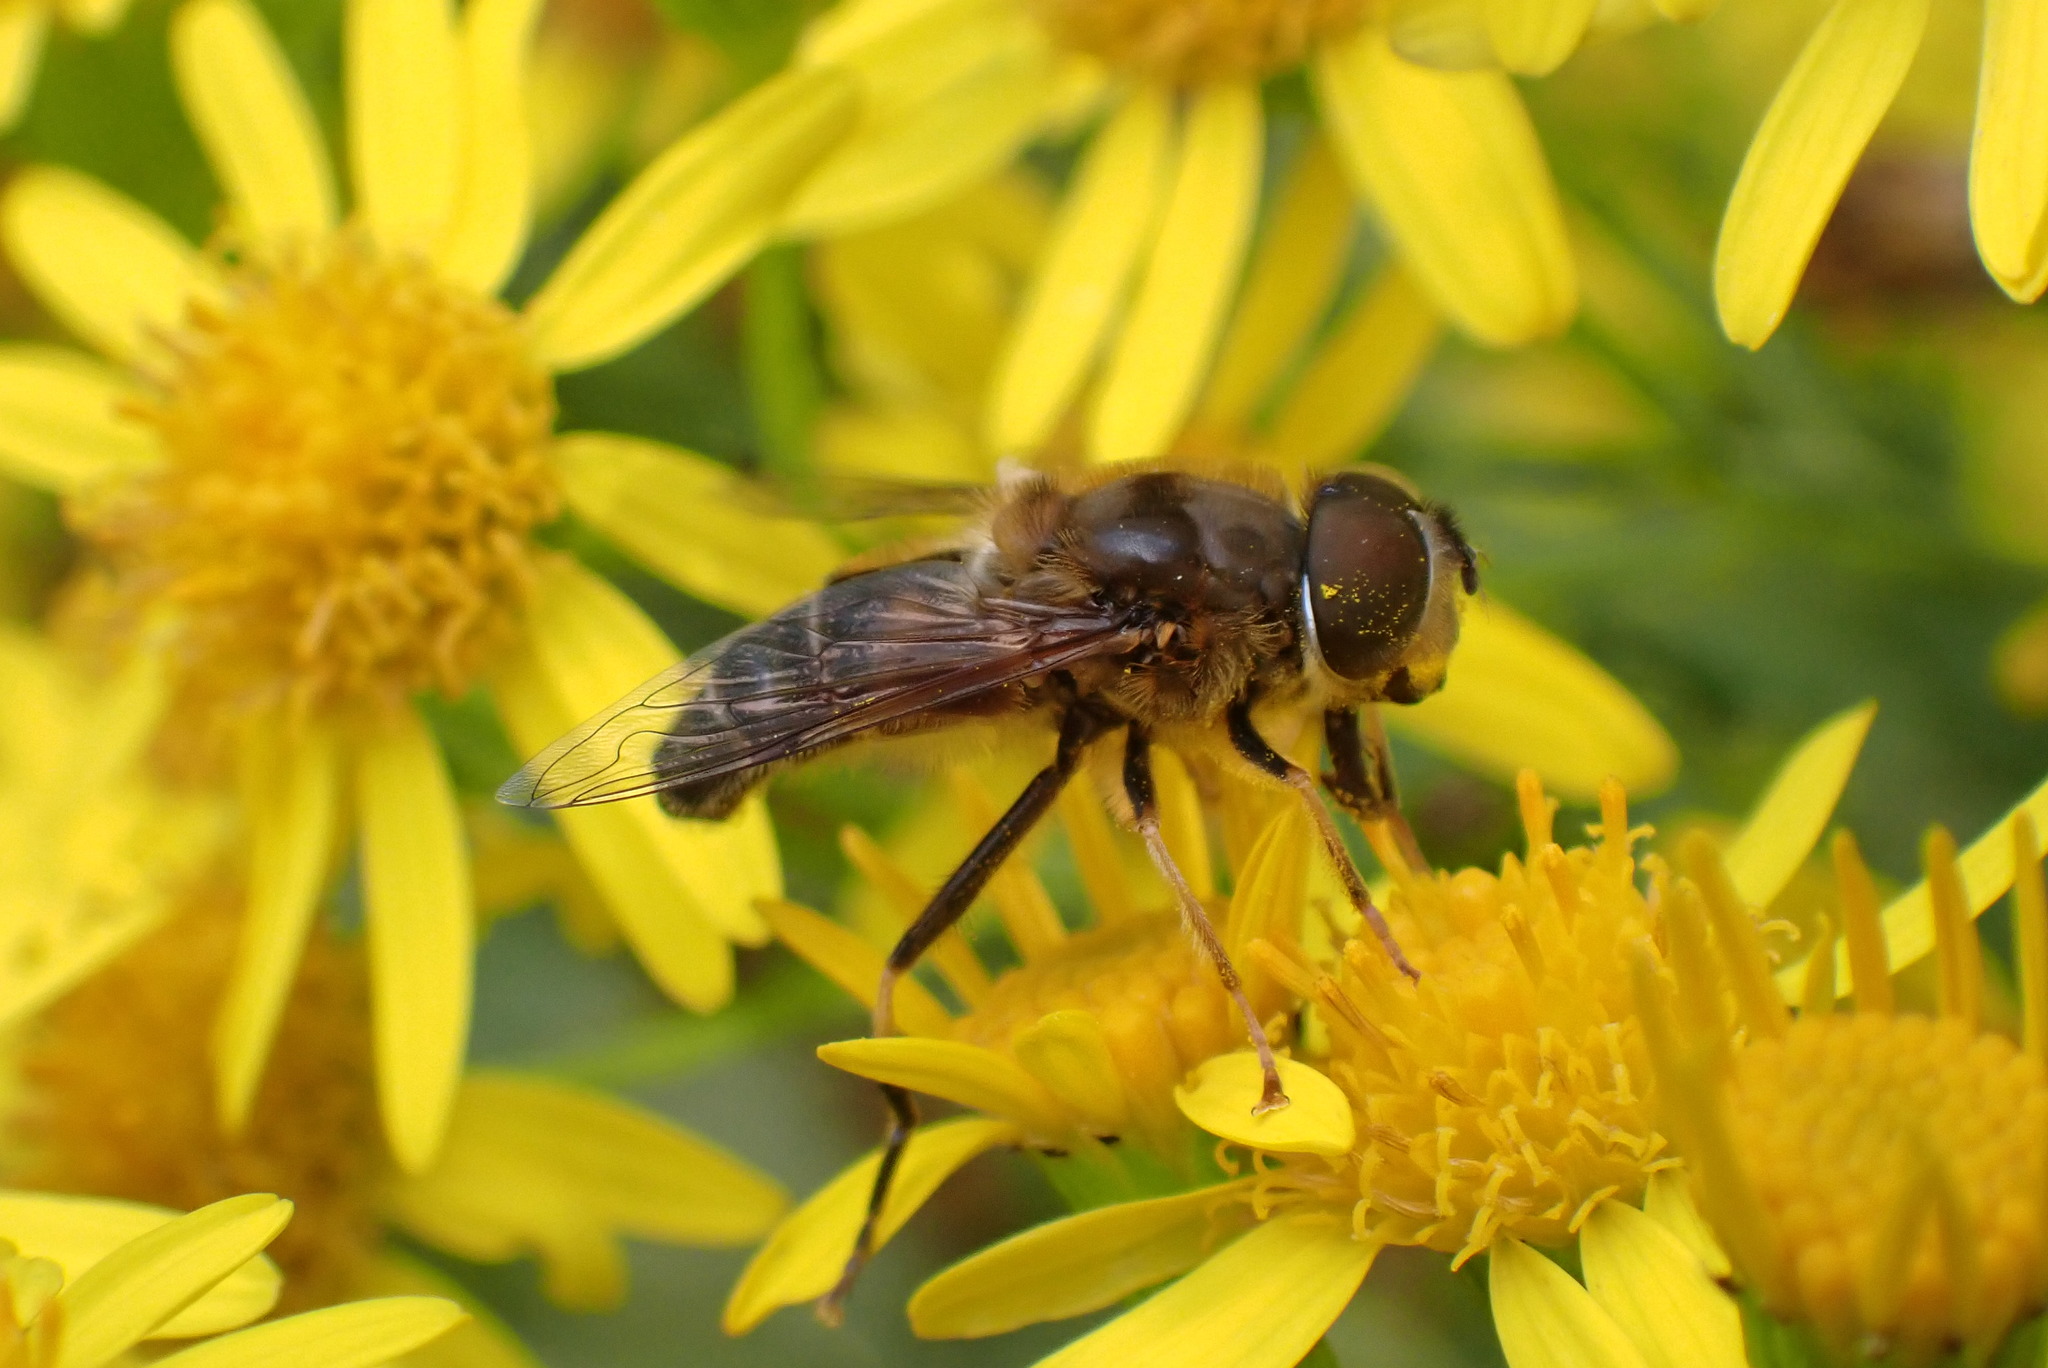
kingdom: Animalia
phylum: Arthropoda
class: Insecta
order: Diptera
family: Syrphidae
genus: Eristalis
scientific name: Eristalis pertinax
